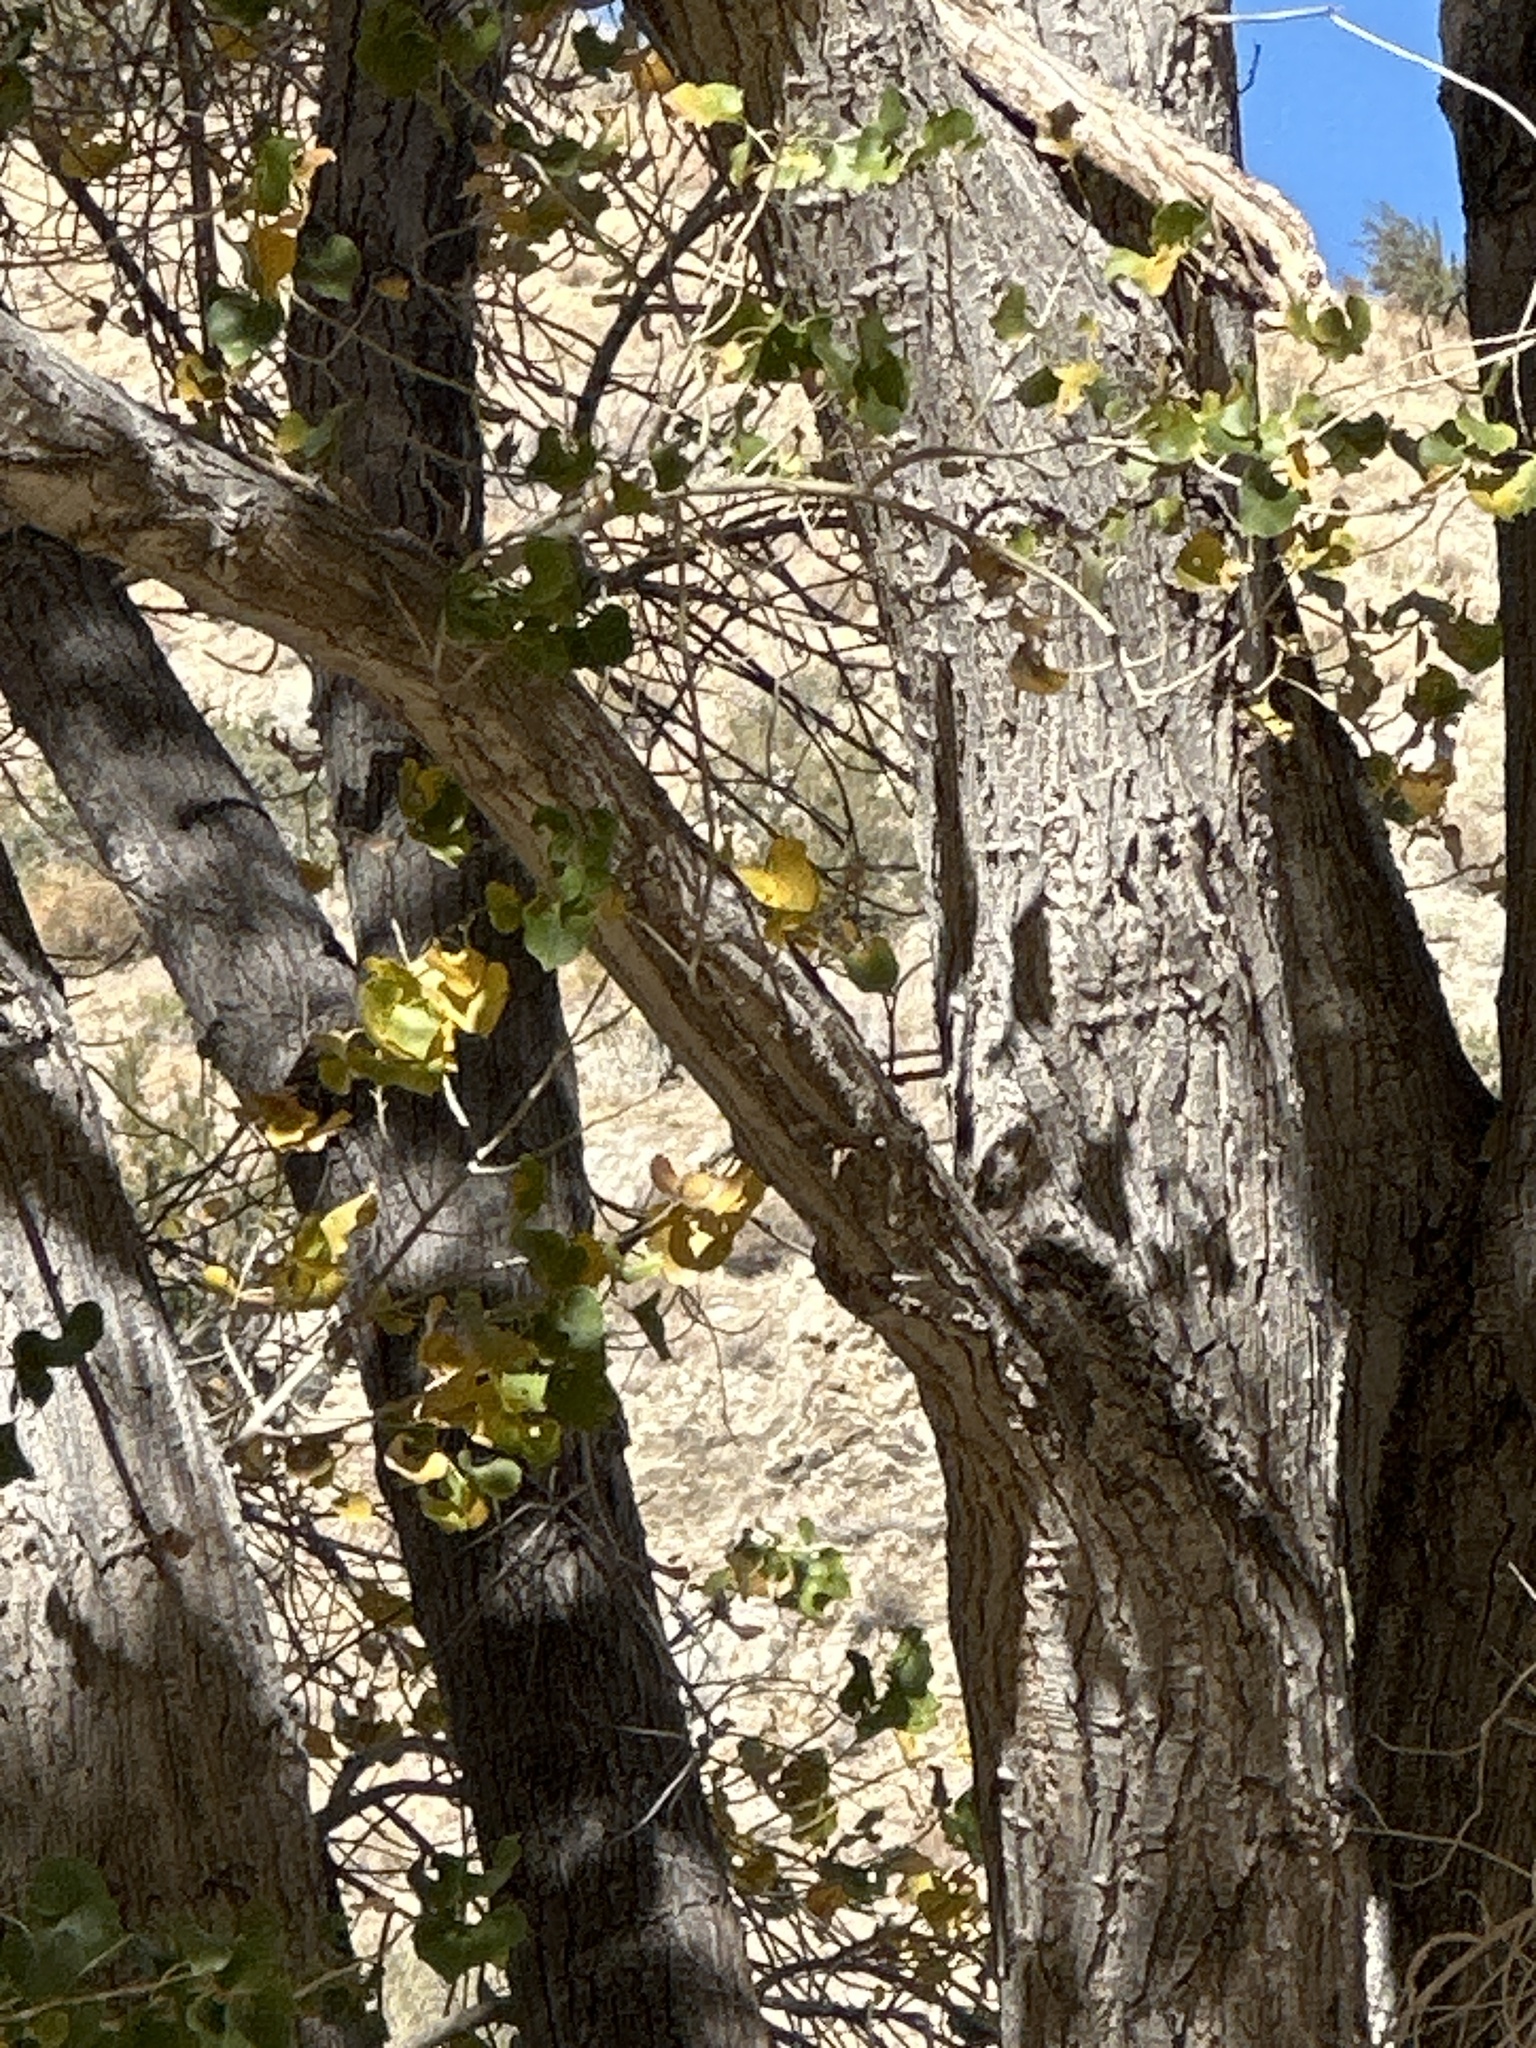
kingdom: Plantae
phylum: Tracheophyta
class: Magnoliopsida
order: Malpighiales
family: Salicaceae
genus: Populus
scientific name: Populus fremontii
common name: Fremont's cottonwood
